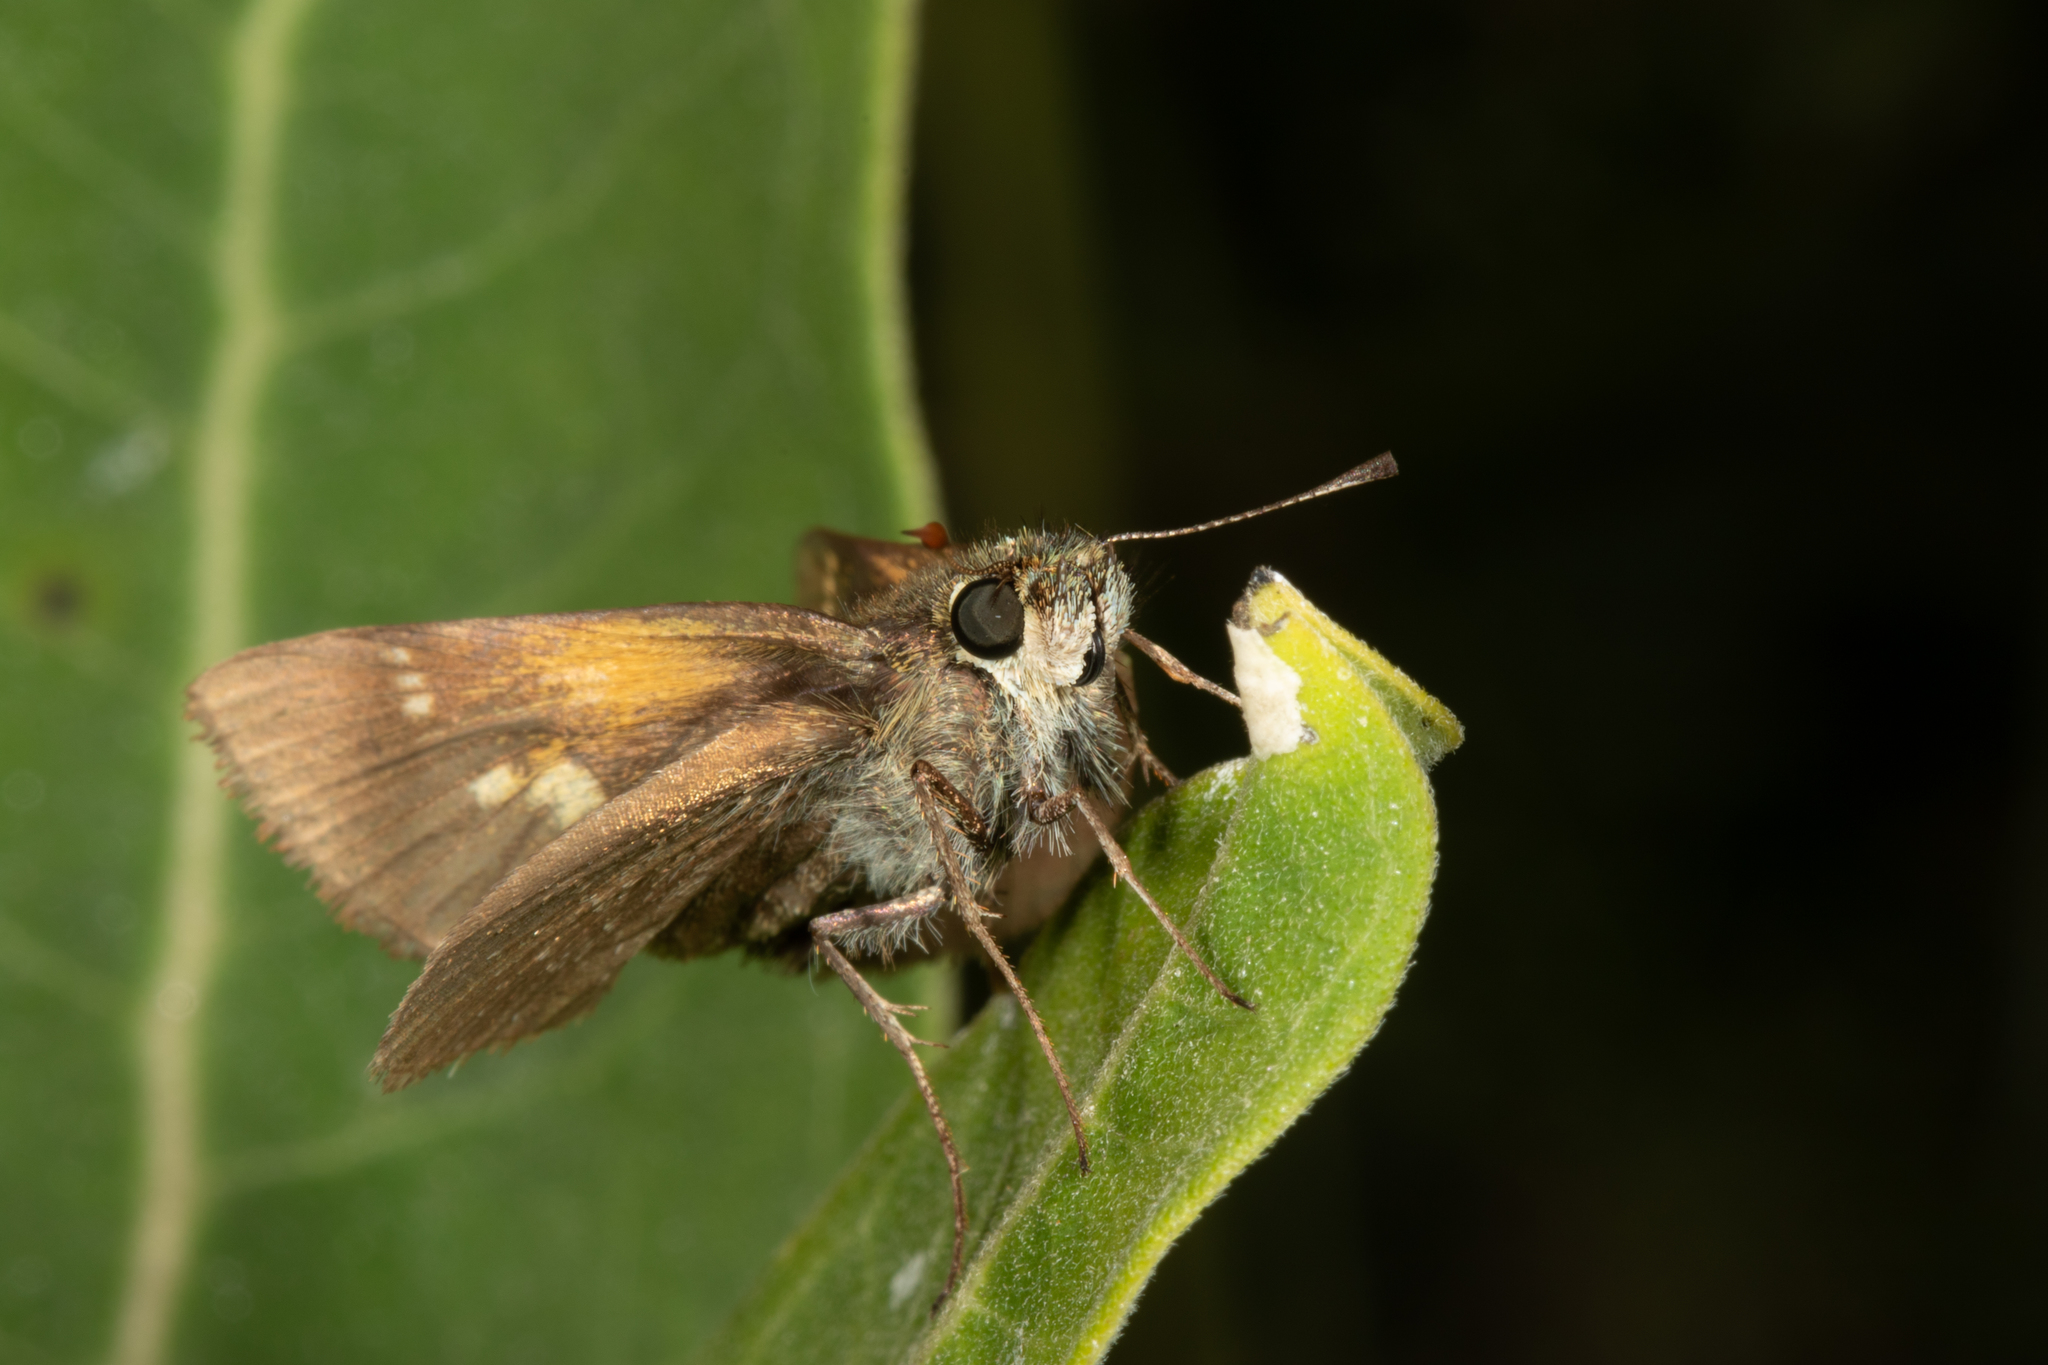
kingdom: Animalia
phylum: Arthropoda
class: Insecta
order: Lepidoptera
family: Hesperiidae
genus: Polites
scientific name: Polites themistocles
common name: Tawny-edged skipper
